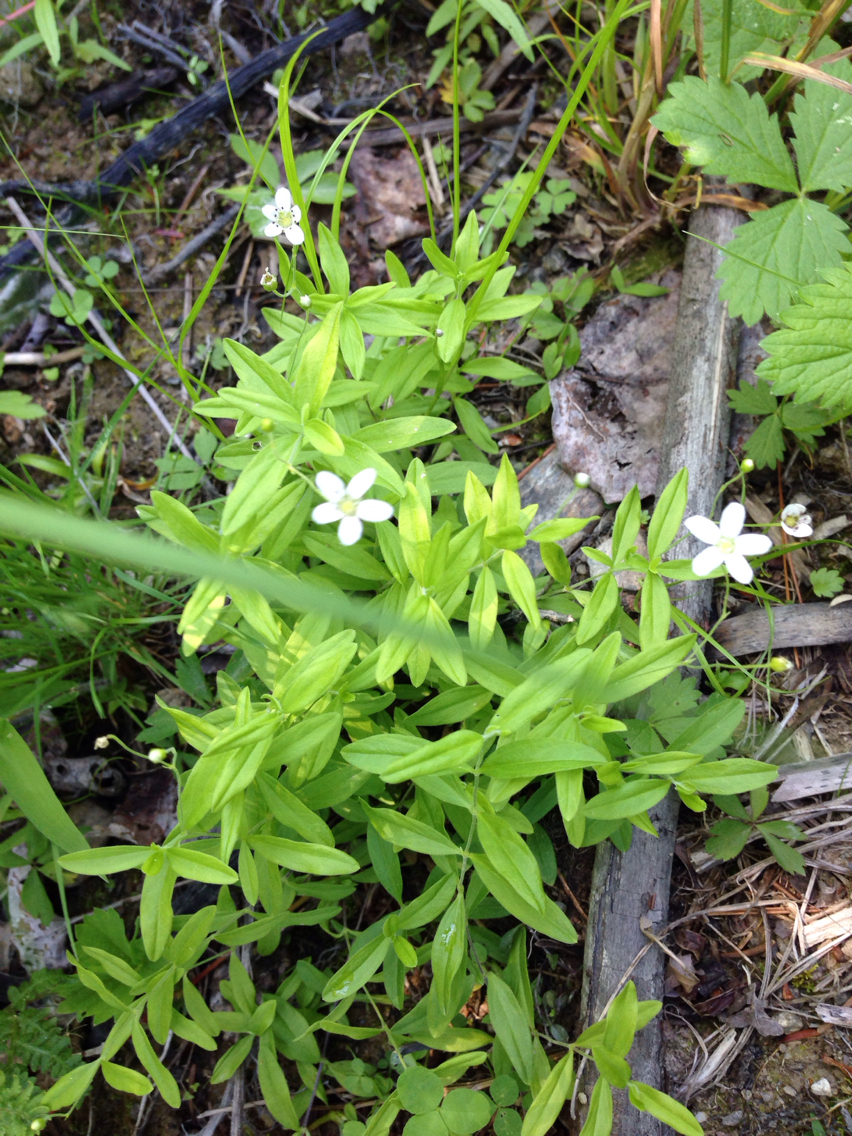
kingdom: Plantae
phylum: Tracheophyta
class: Magnoliopsida
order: Caryophyllales
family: Caryophyllaceae
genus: Moehringia
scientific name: Moehringia lateriflora
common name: Blunt-leaved sandwort
